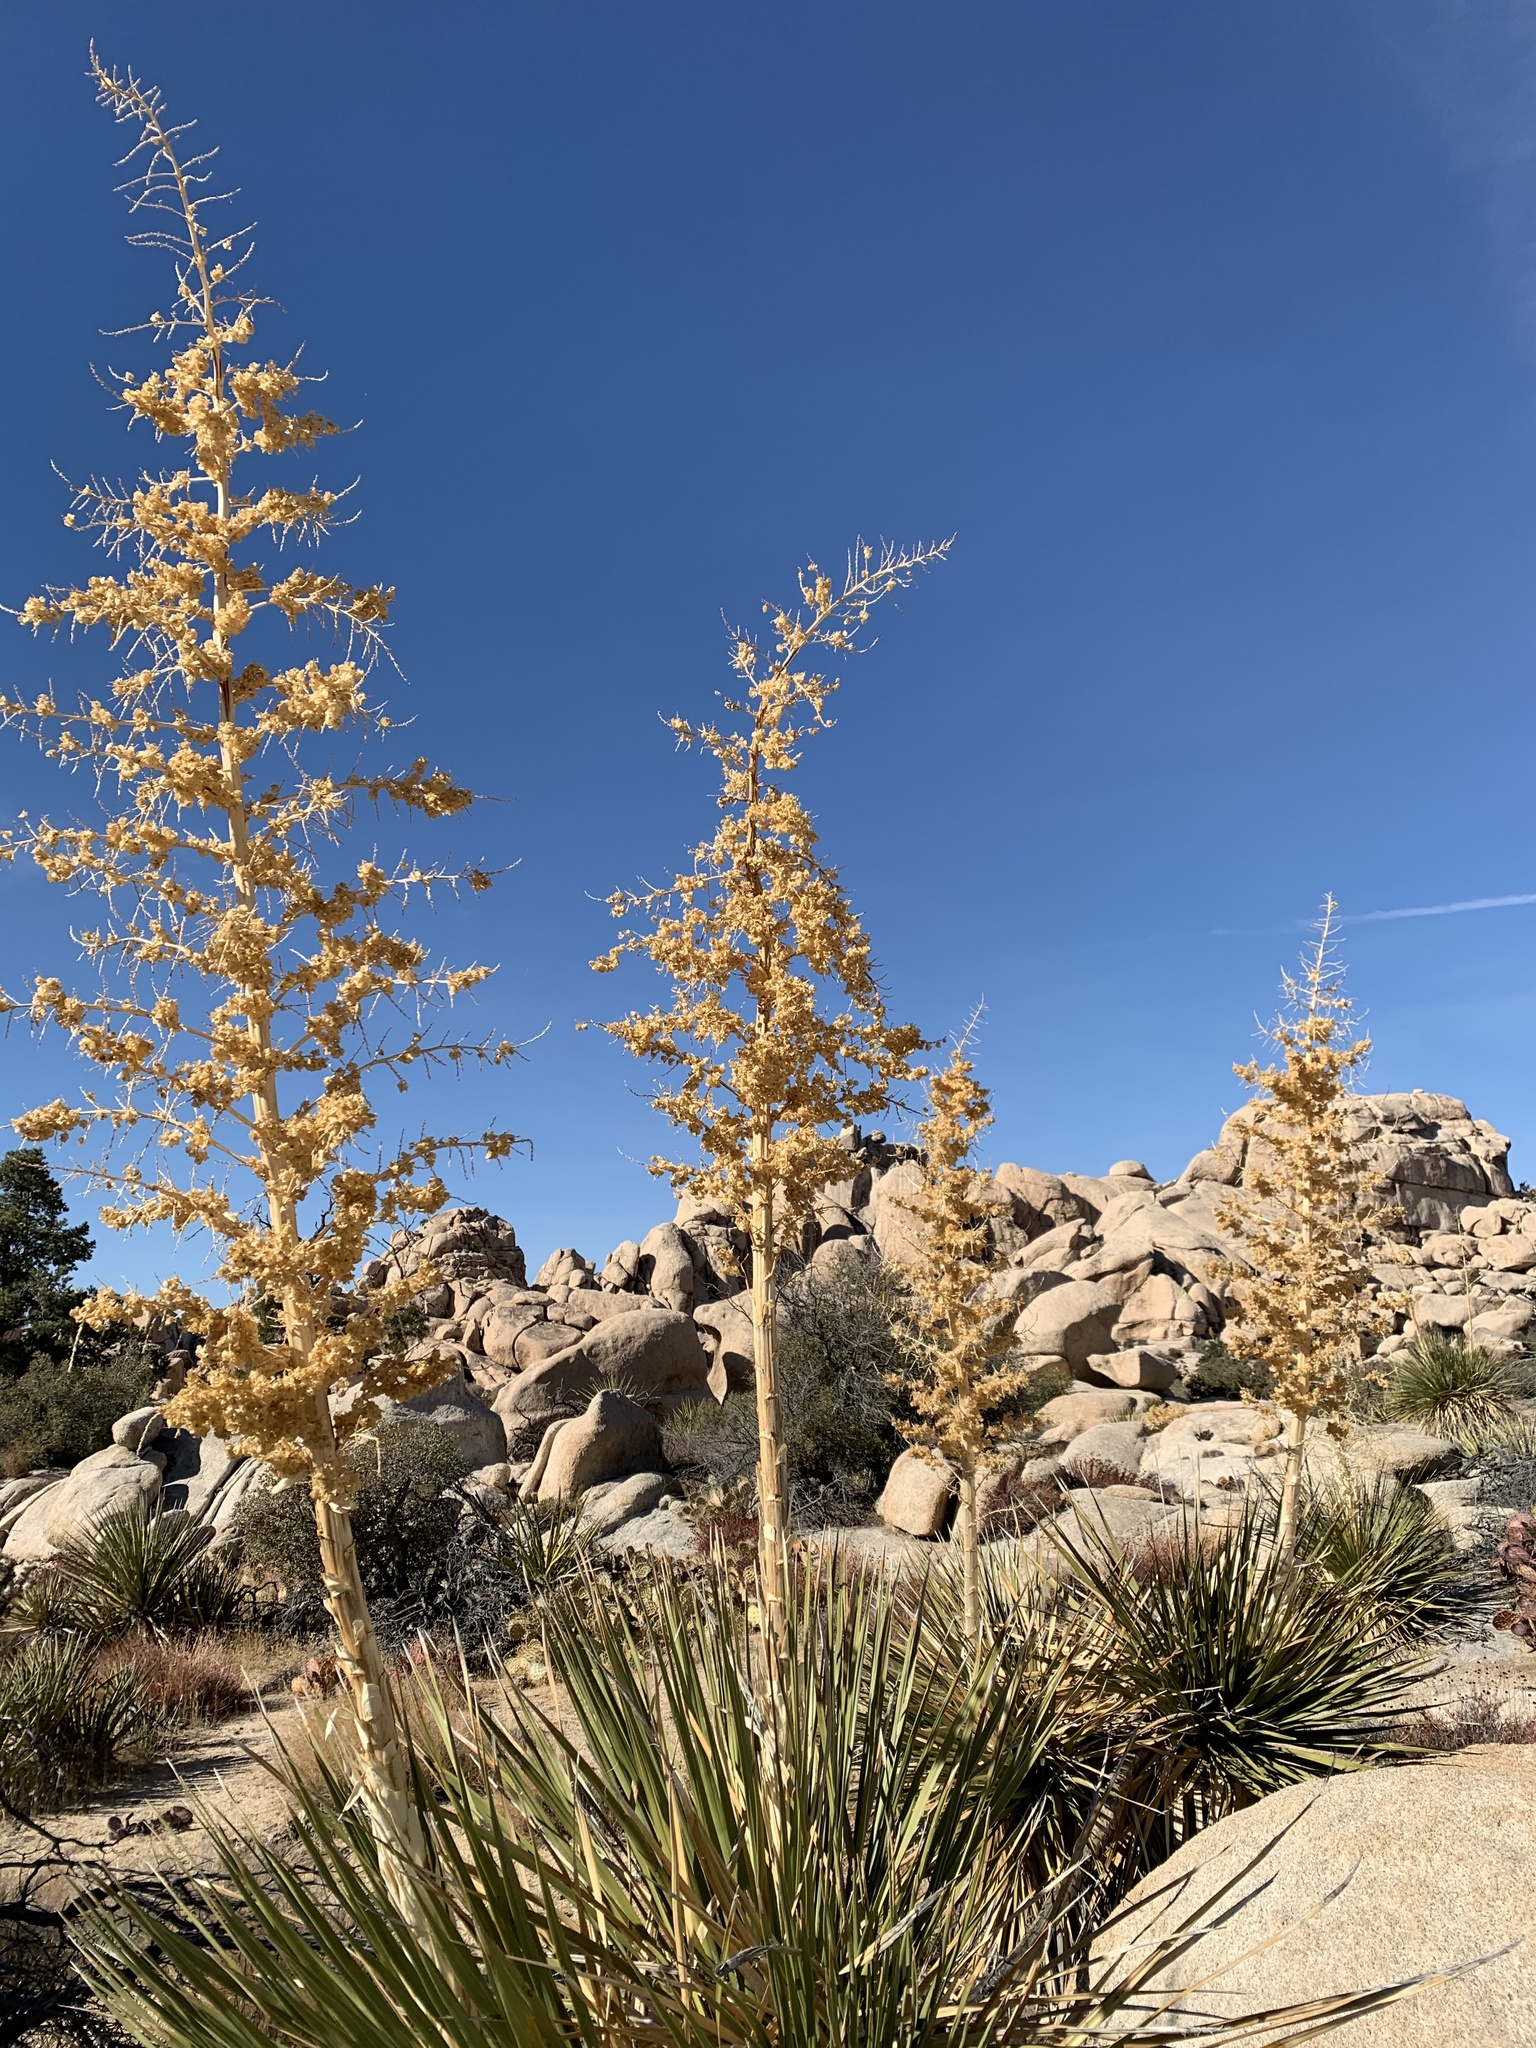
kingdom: Plantae
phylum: Tracheophyta
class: Liliopsida
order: Asparagales
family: Asparagaceae
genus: Nolina
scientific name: Nolina parryi
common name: Parry nolina
